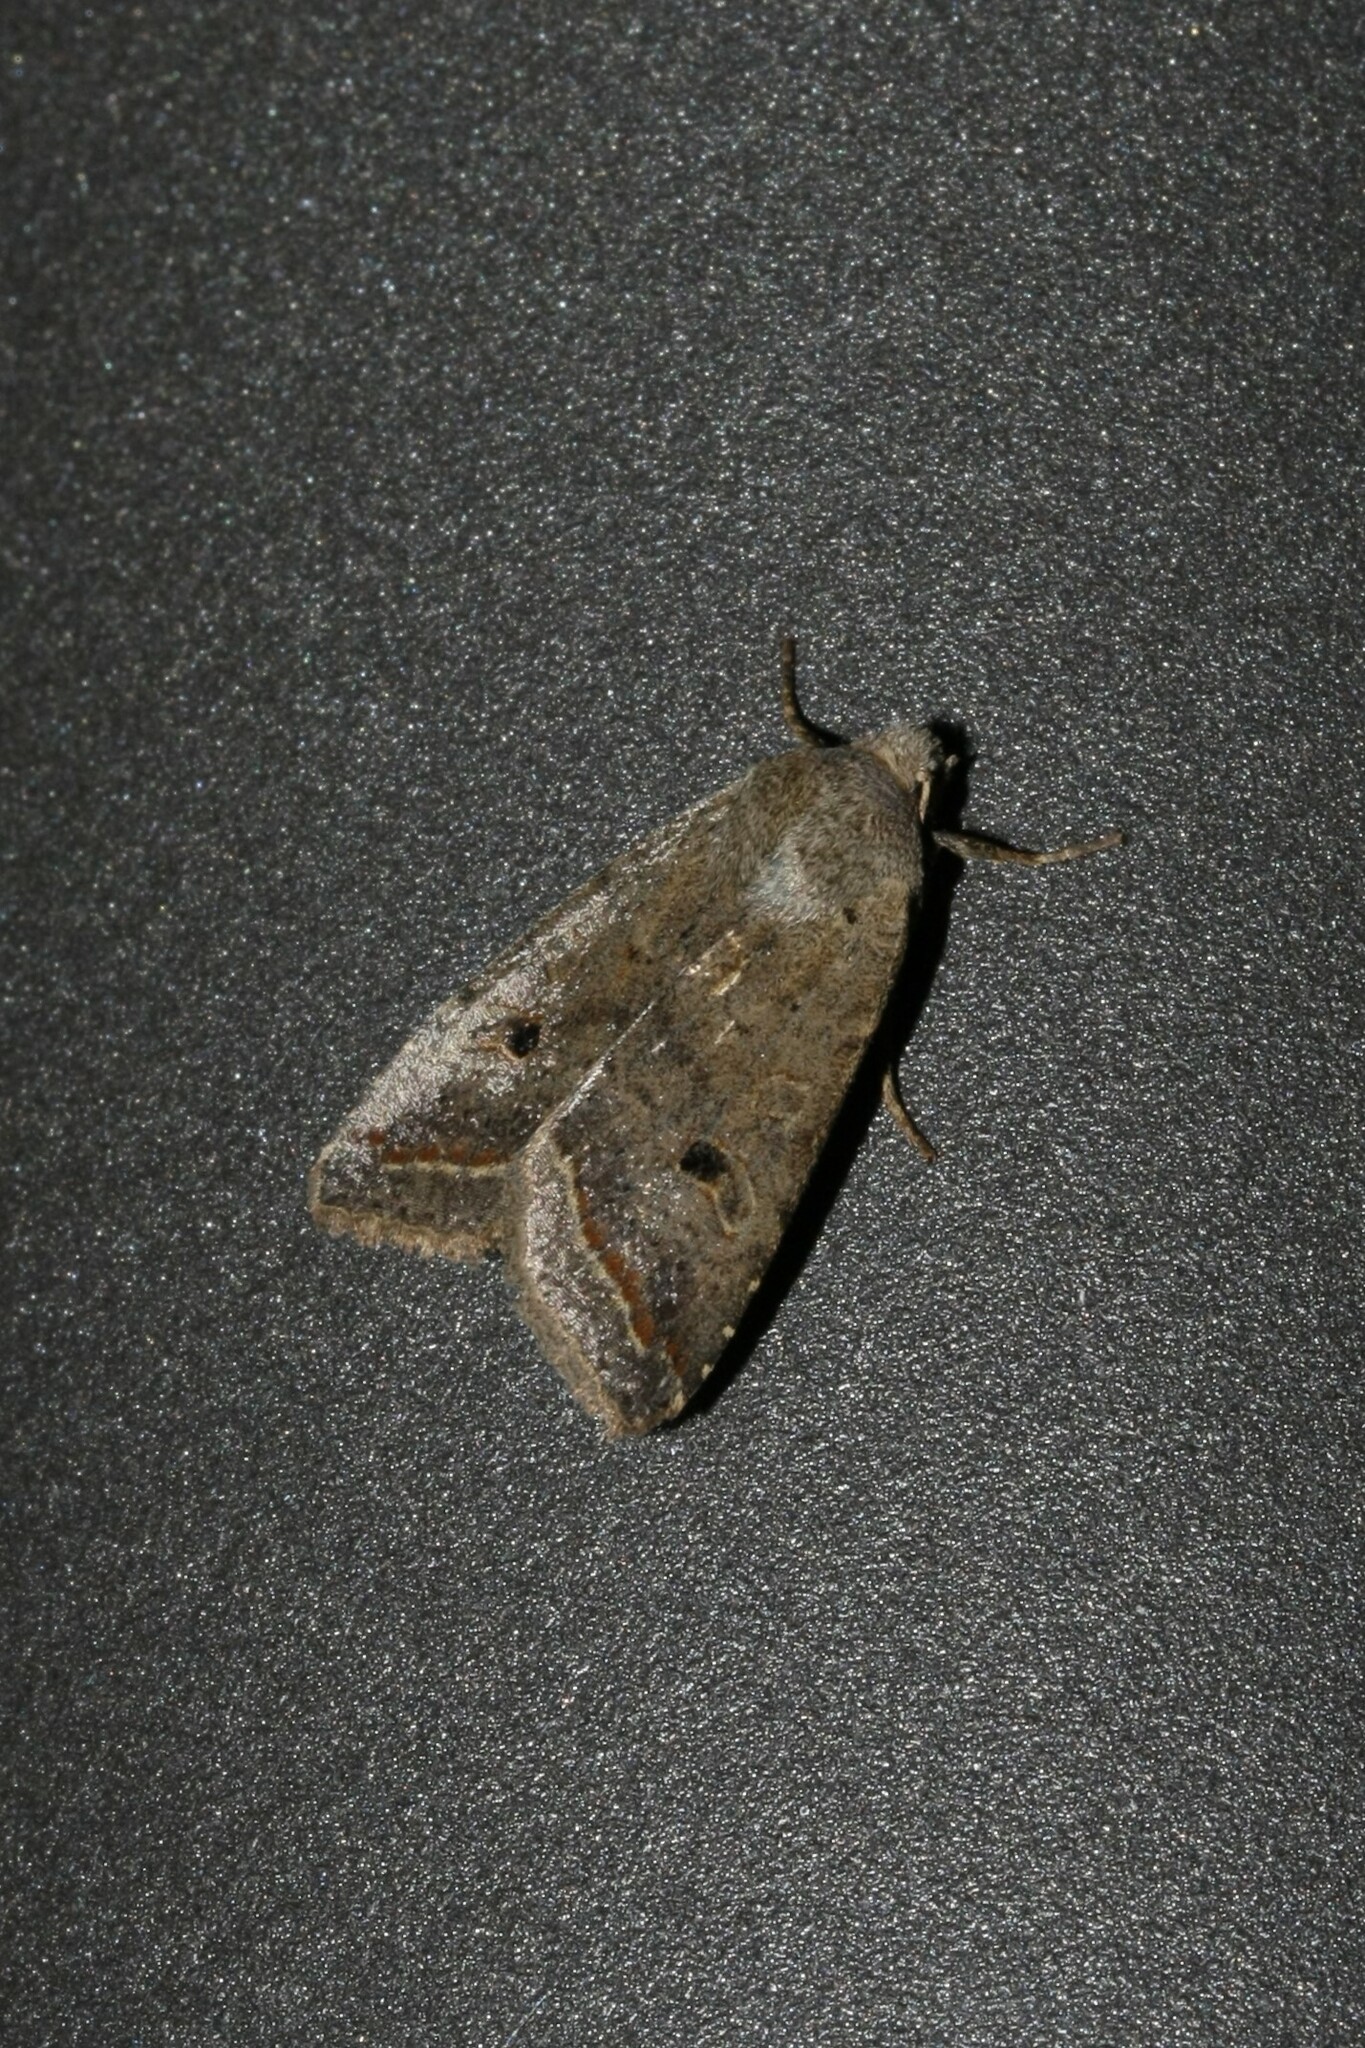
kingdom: Animalia
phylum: Arthropoda
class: Insecta
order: Lepidoptera
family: Noctuidae
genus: Agrochola
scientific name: Agrochola lota
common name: Red-line quaker
